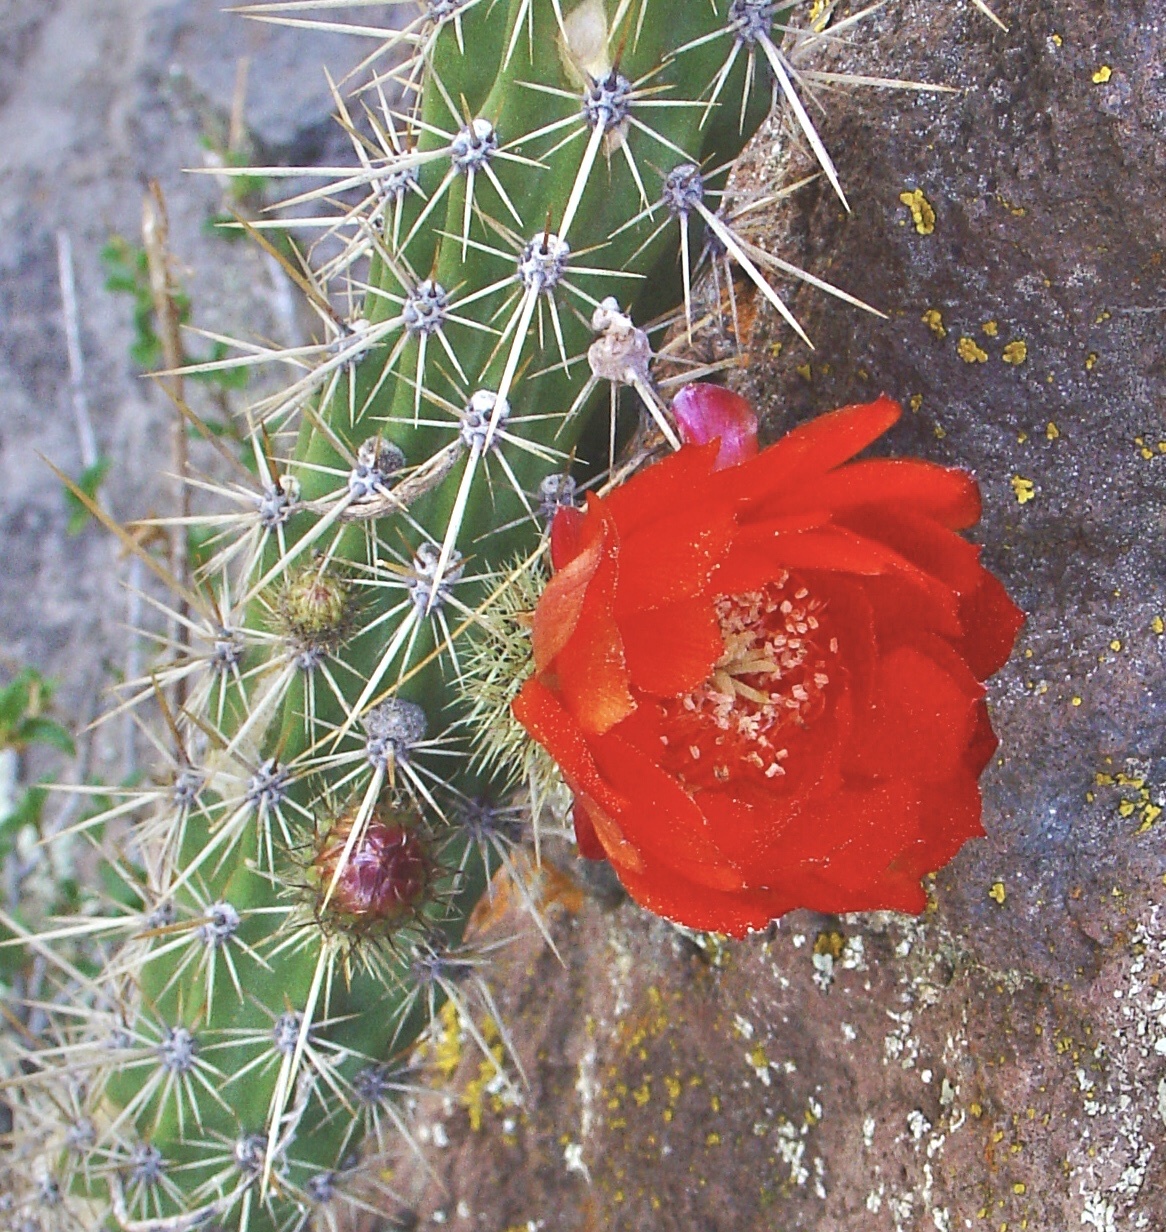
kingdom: Plantae
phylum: Tracheophyta
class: Magnoliopsida
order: Caryophyllales
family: Cactaceae
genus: Corryocactus
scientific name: Corryocactus erectus
